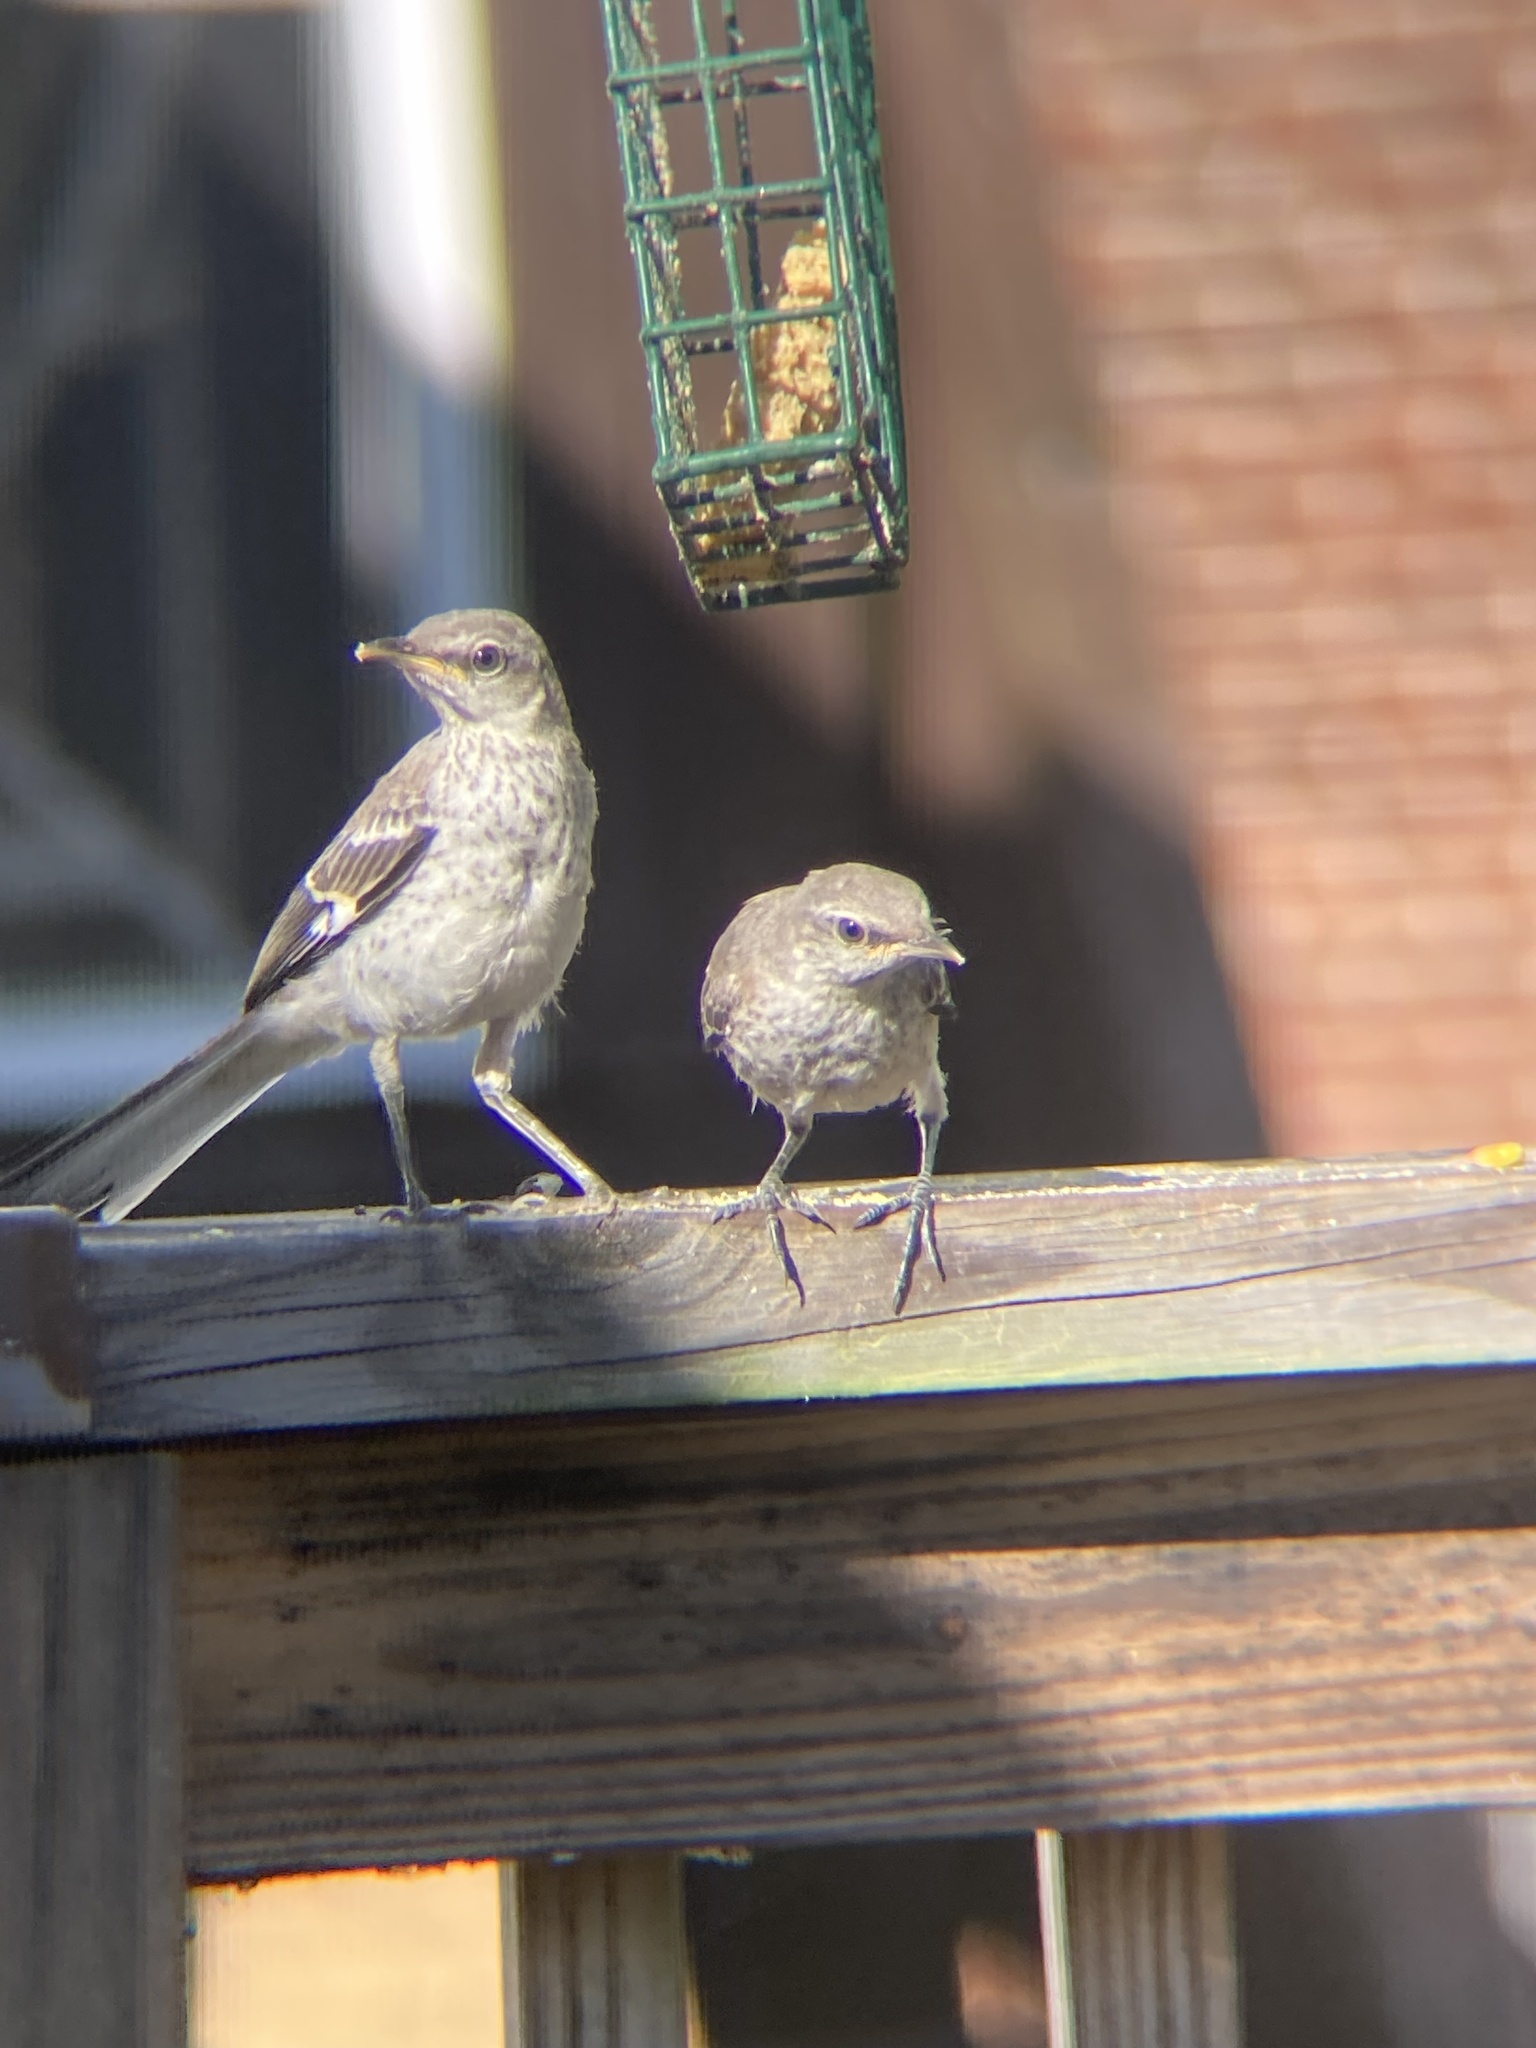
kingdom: Animalia
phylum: Chordata
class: Aves
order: Passeriformes
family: Mimidae
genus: Mimus
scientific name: Mimus polyglottos
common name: Northern mockingbird
